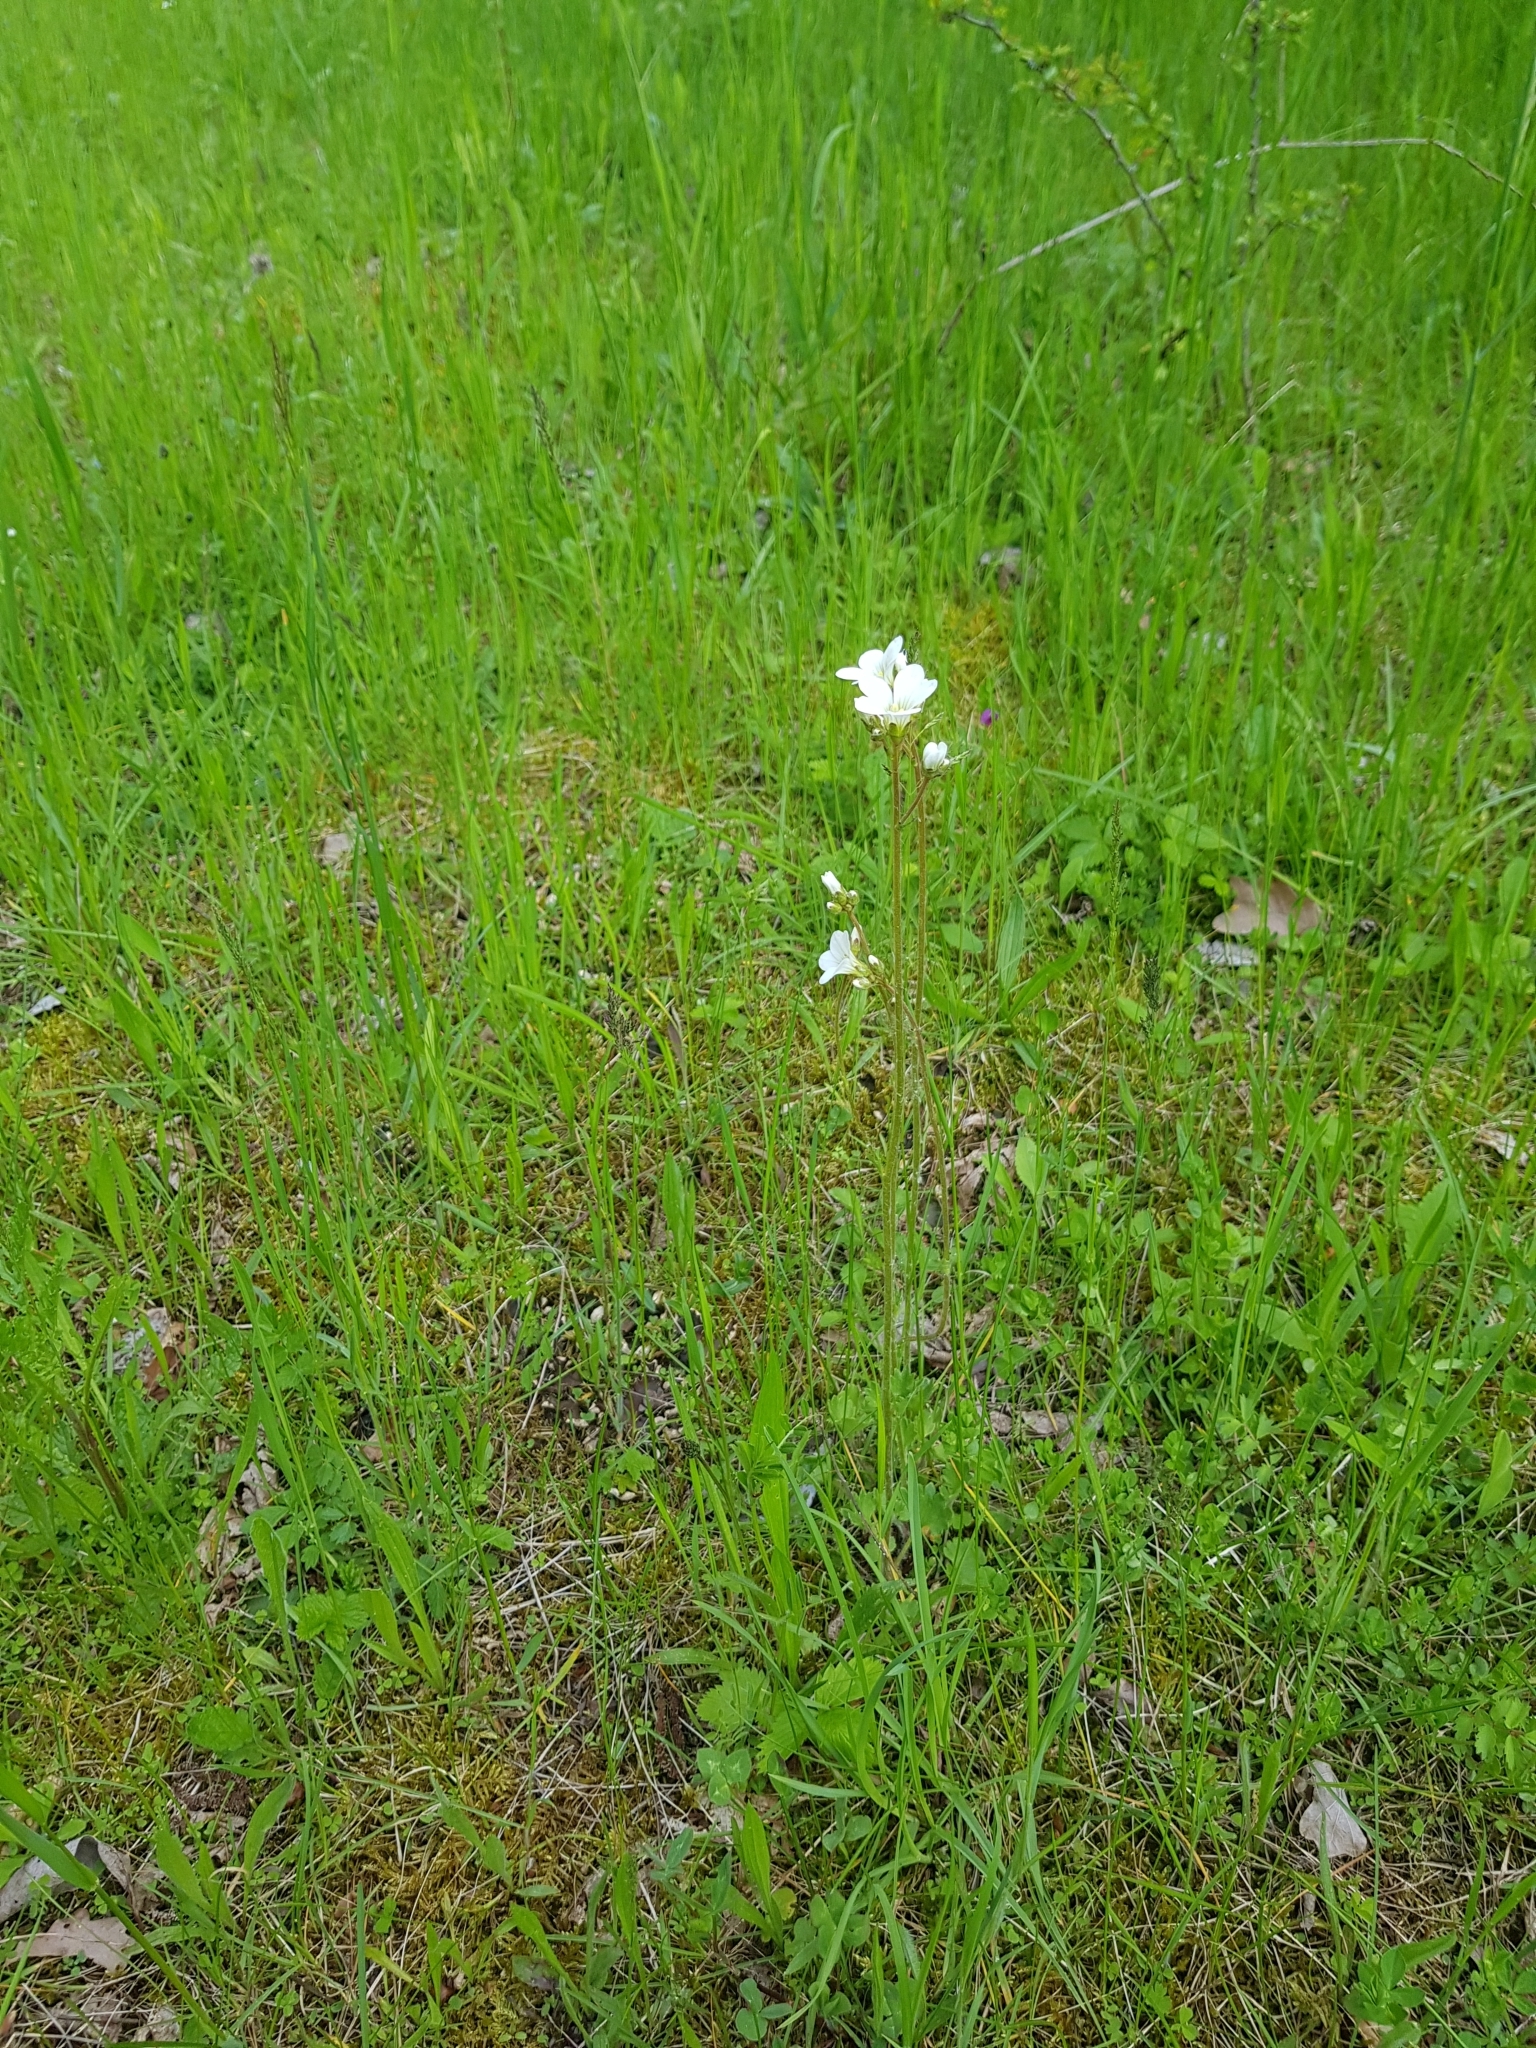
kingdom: Plantae
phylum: Tracheophyta
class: Magnoliopsida
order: Saxifragales
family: Saxifragaceae
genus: Saxifraga
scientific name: Saxifraga granulata
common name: Meadow saxifrage
